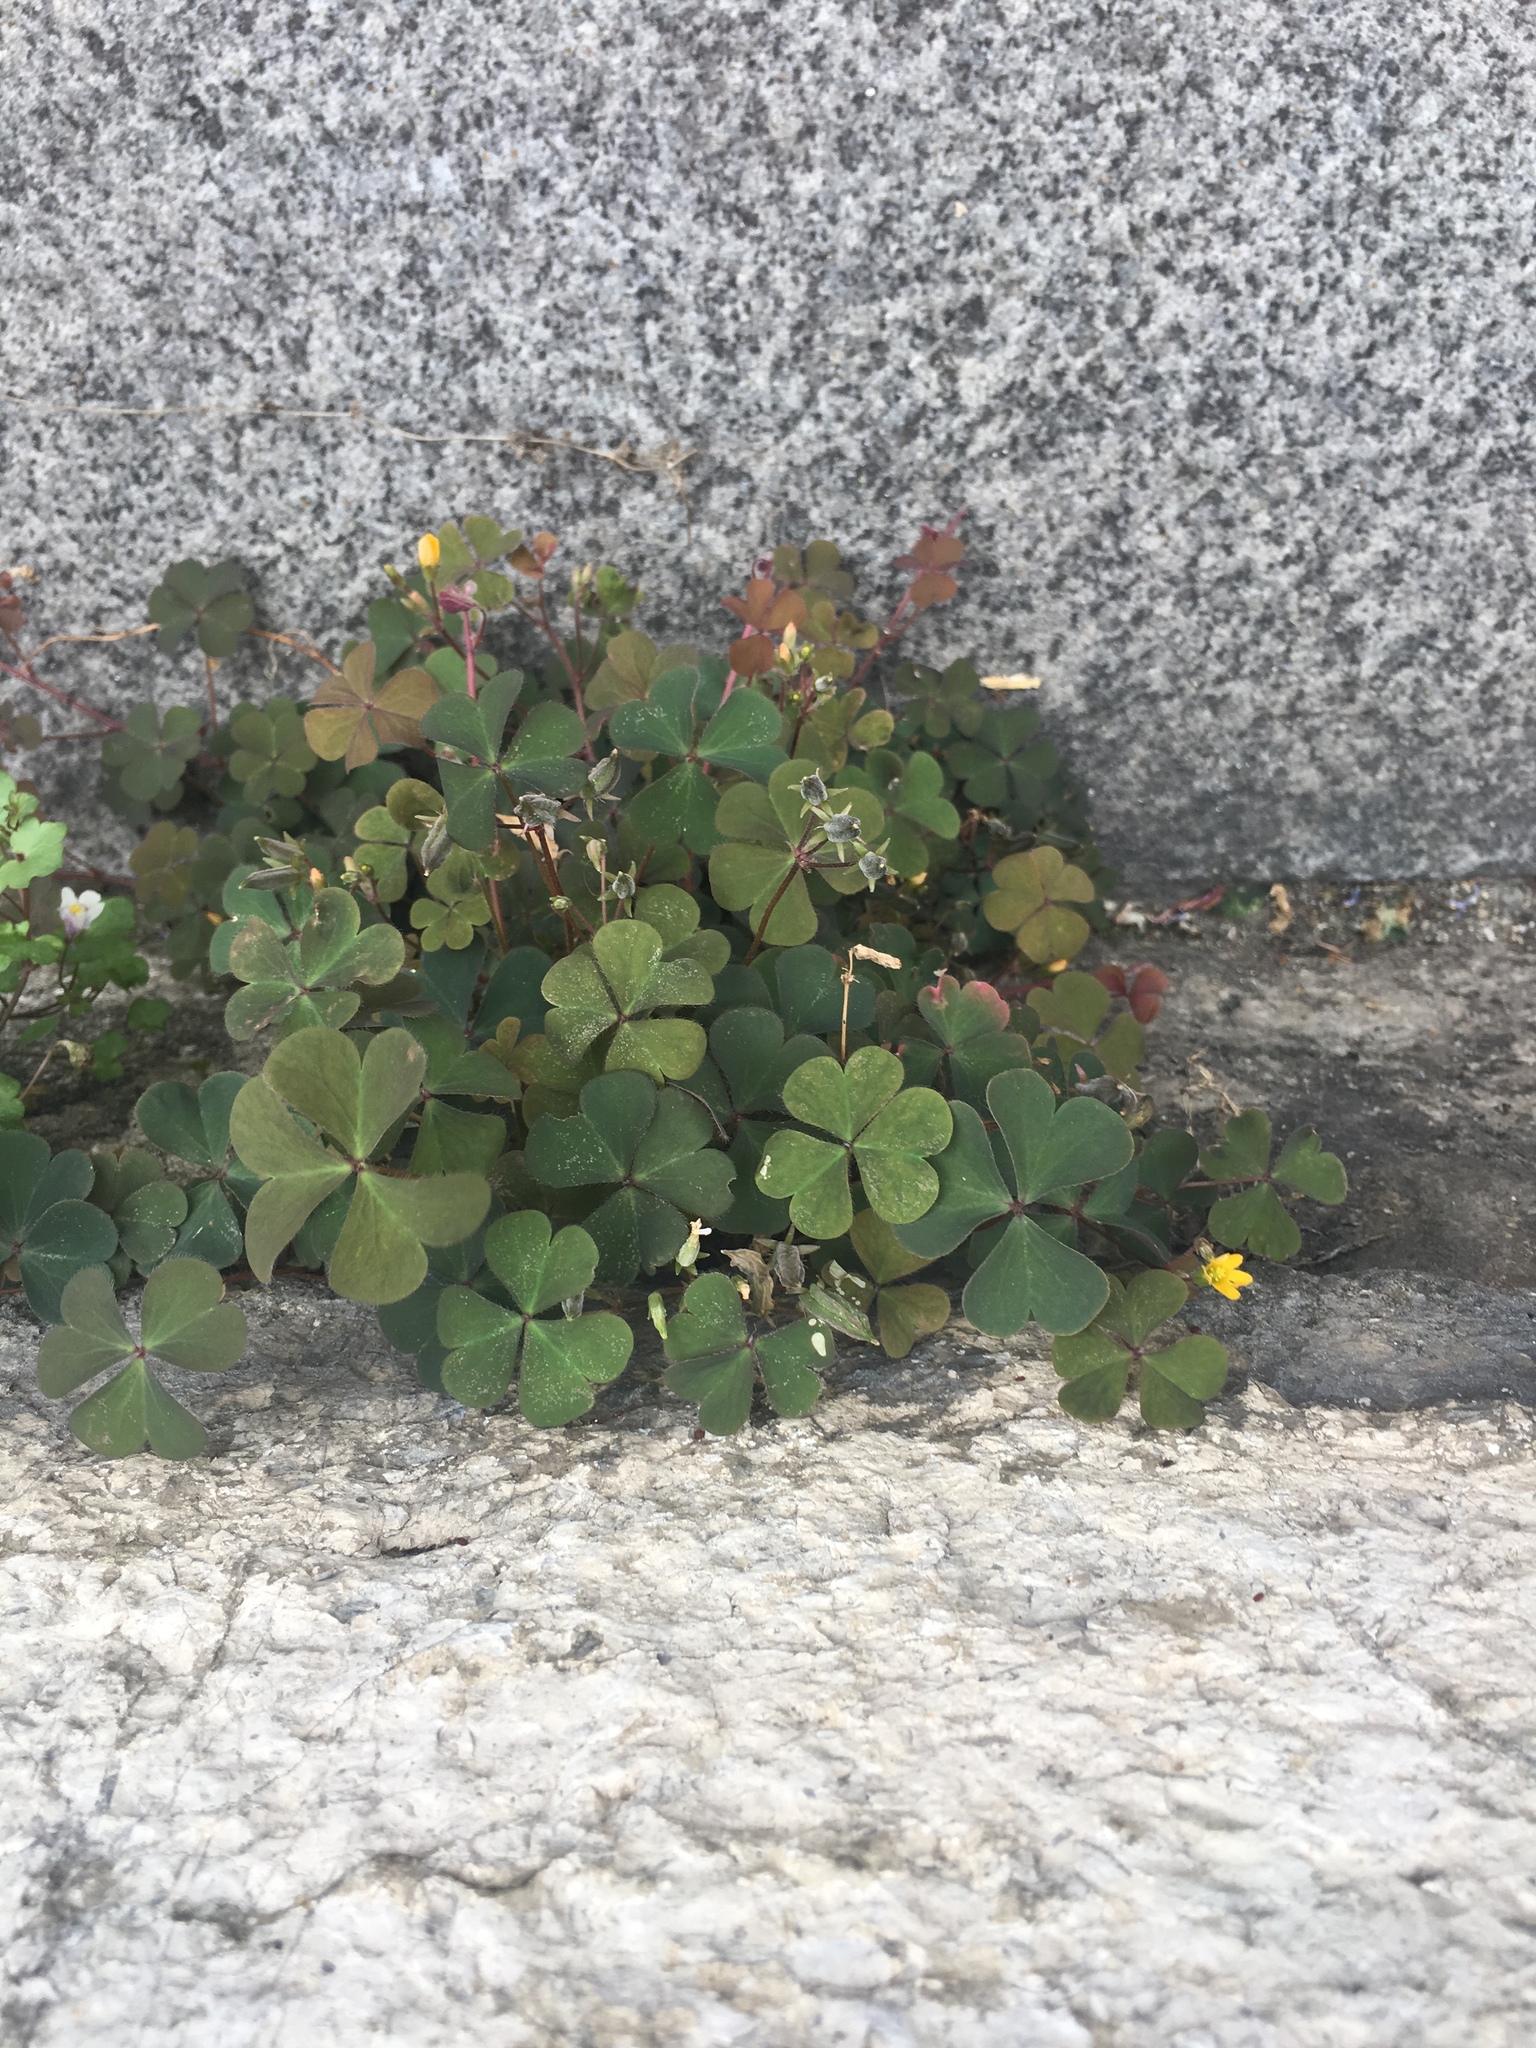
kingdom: Plantae
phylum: Tracheophyta
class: Magnoliopsida
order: Oxalidales
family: Oxalidaceae
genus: Oxalis
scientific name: Oxalis corniculata
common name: Procumbent yellow-sorrel
